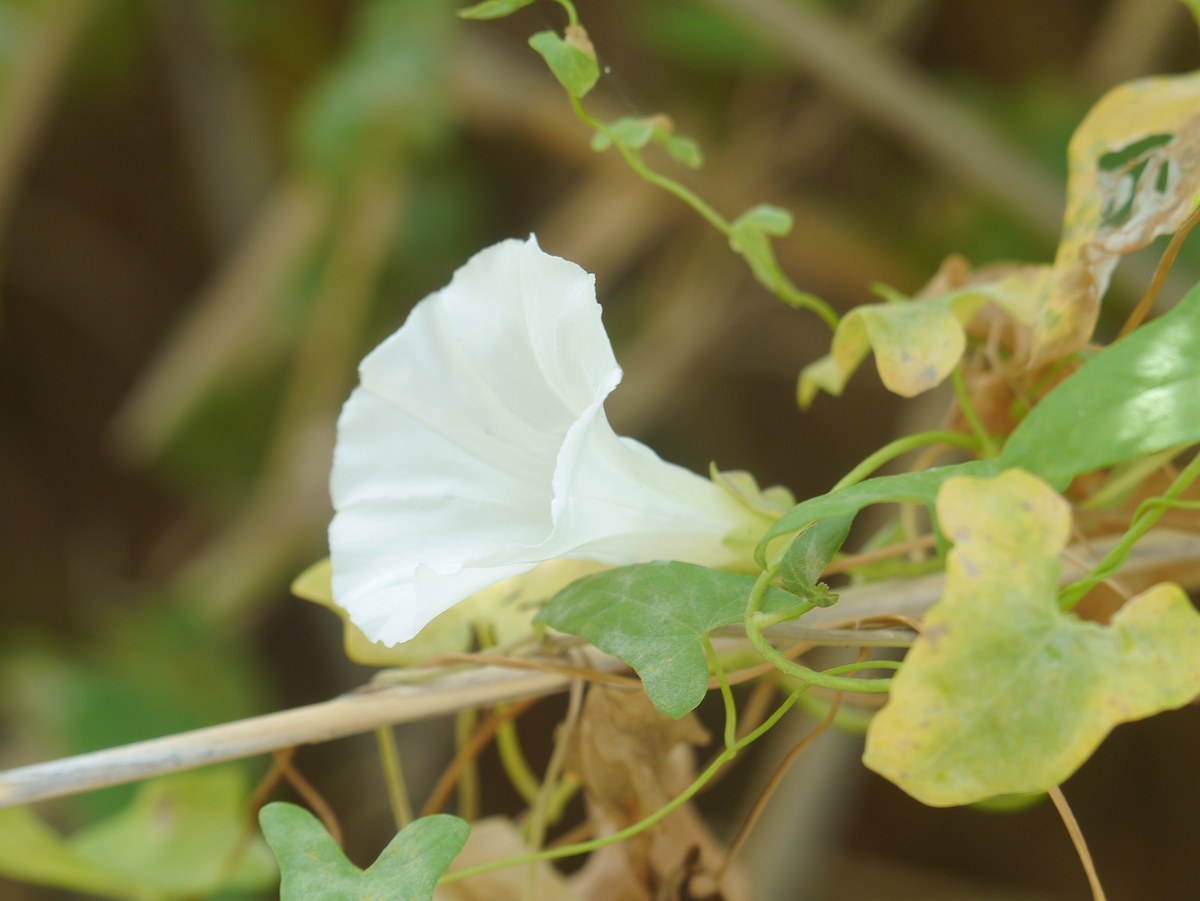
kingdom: Plantae
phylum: Tracheophyta
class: Magnoliopsida
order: Solanales
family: Convolvulaceae
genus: Calystegia
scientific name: Calystegia sepium
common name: Hedge bindweed
